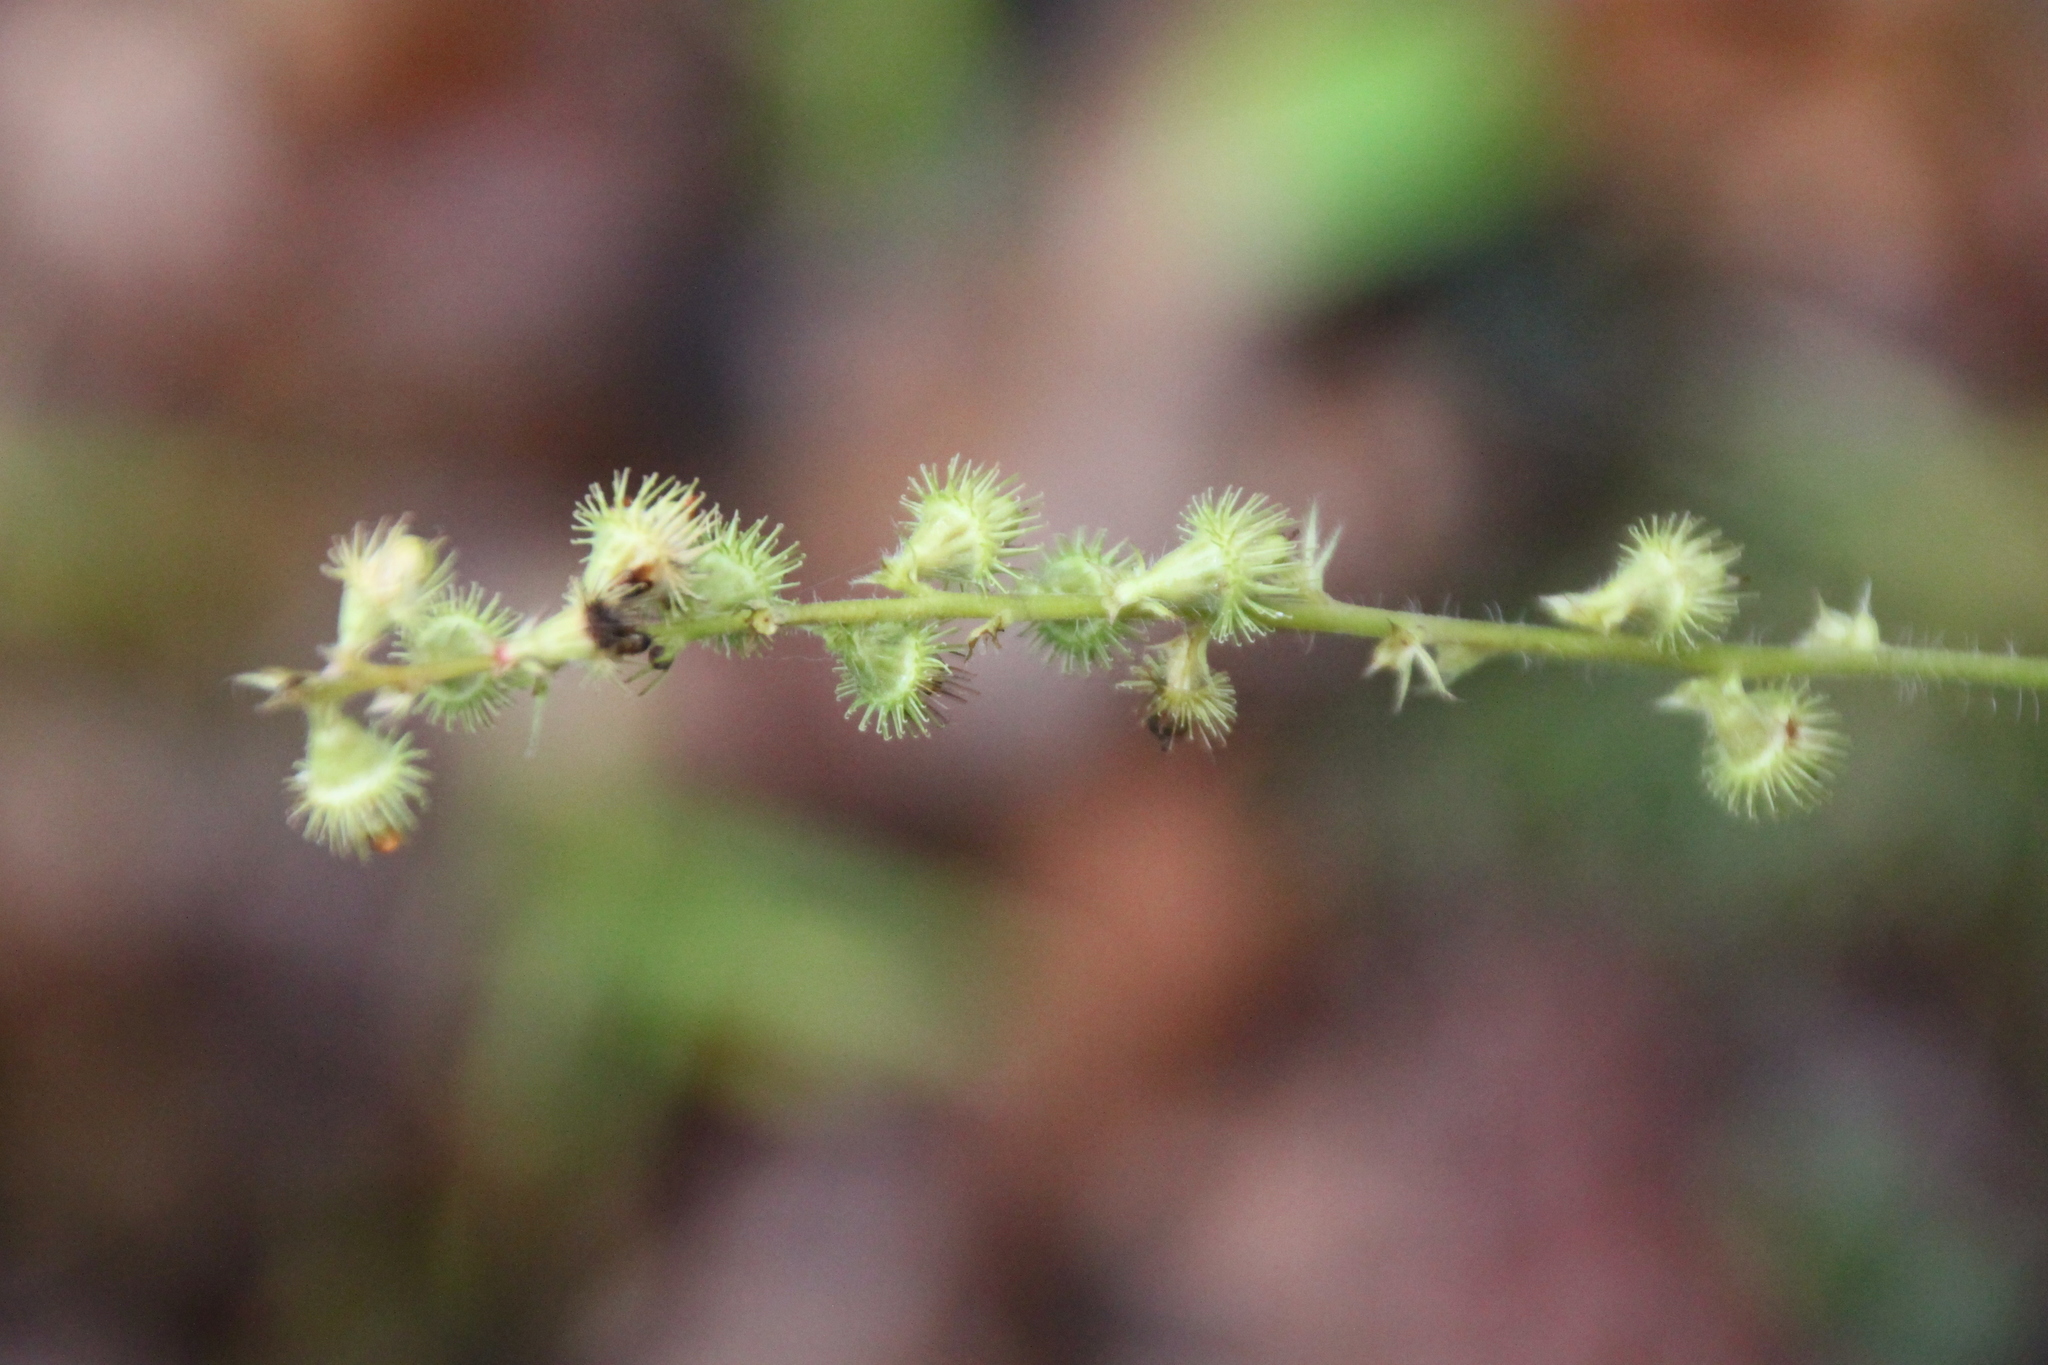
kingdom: Plantae
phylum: Tracheophyta
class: Magnoliopsida
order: Rosales
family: Rosaceae
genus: Agrimonia
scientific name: Agrimonia eupatoria
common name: Agrimony
